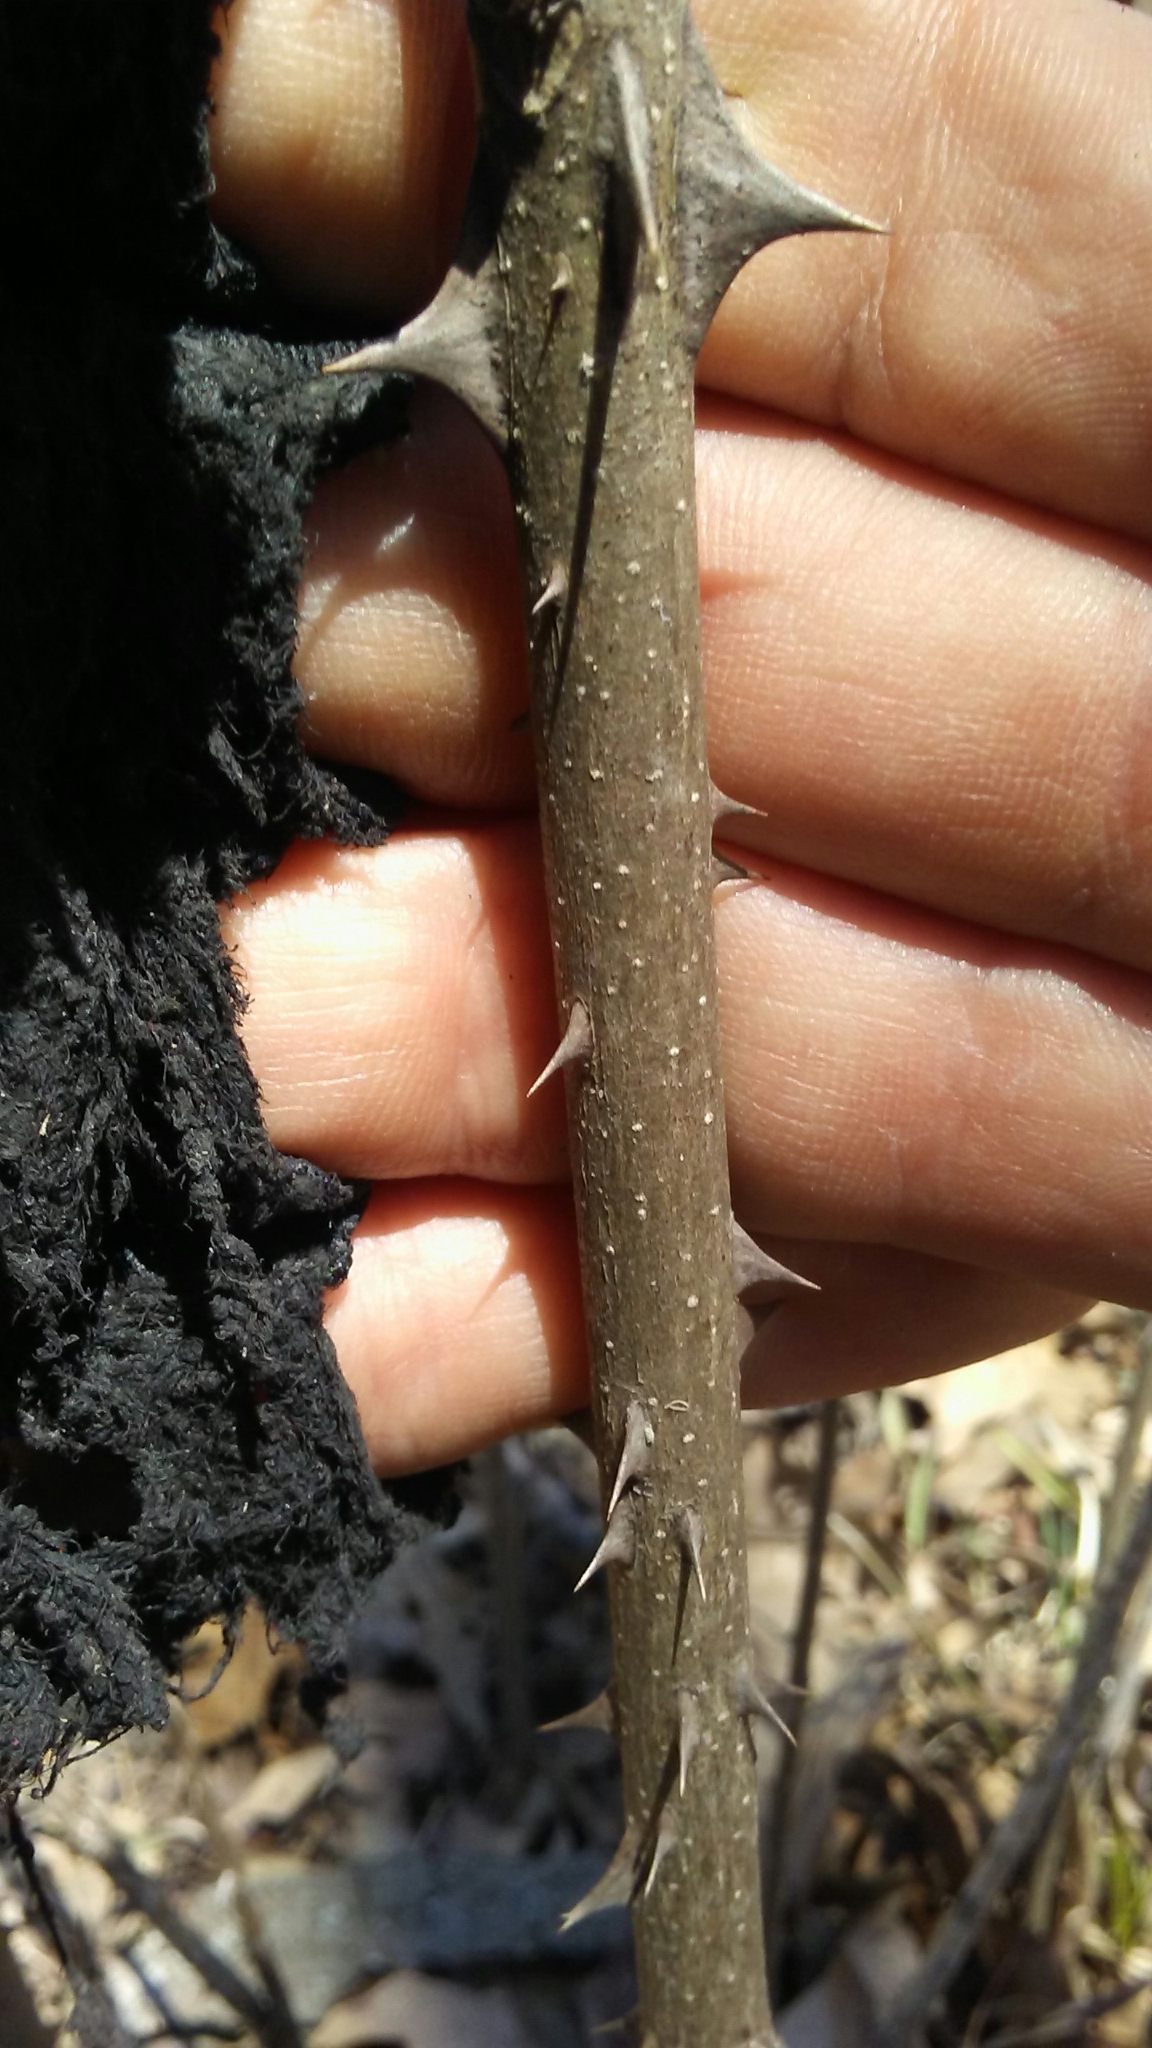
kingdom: Plantae
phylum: Tracheophyta
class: Magnoliopsida
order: Sapindales
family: Rutaceae
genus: Zanthoxylum
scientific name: Zanthoxylum americanum
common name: Northern prickly-ash
